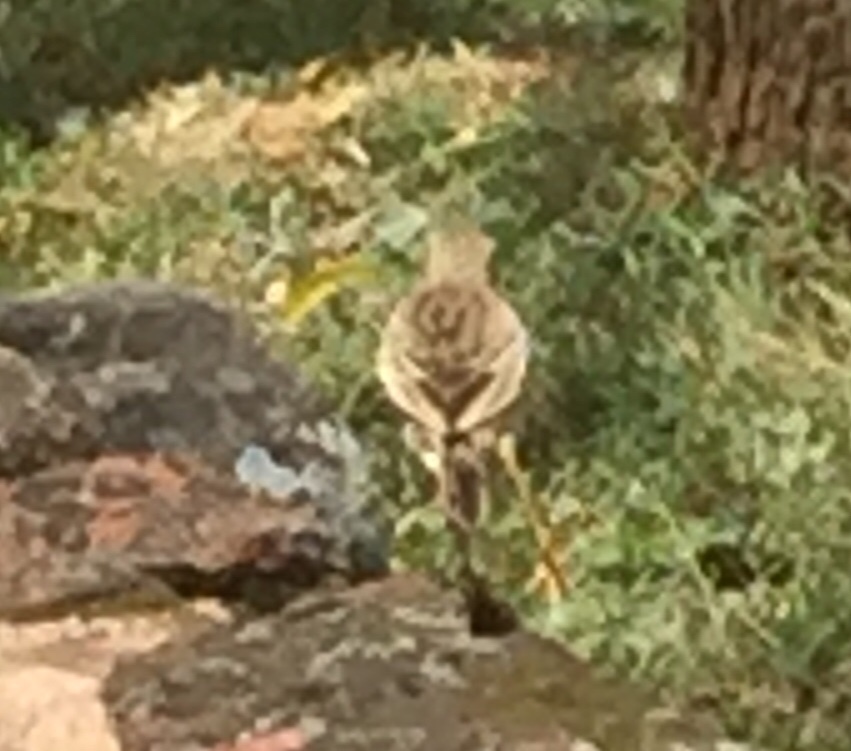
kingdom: Animalia
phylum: Chordata
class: Aves
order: Passeriformes
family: Motacillidae
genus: Anthus
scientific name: Anthus rufulus
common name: Paddyfield pipit
